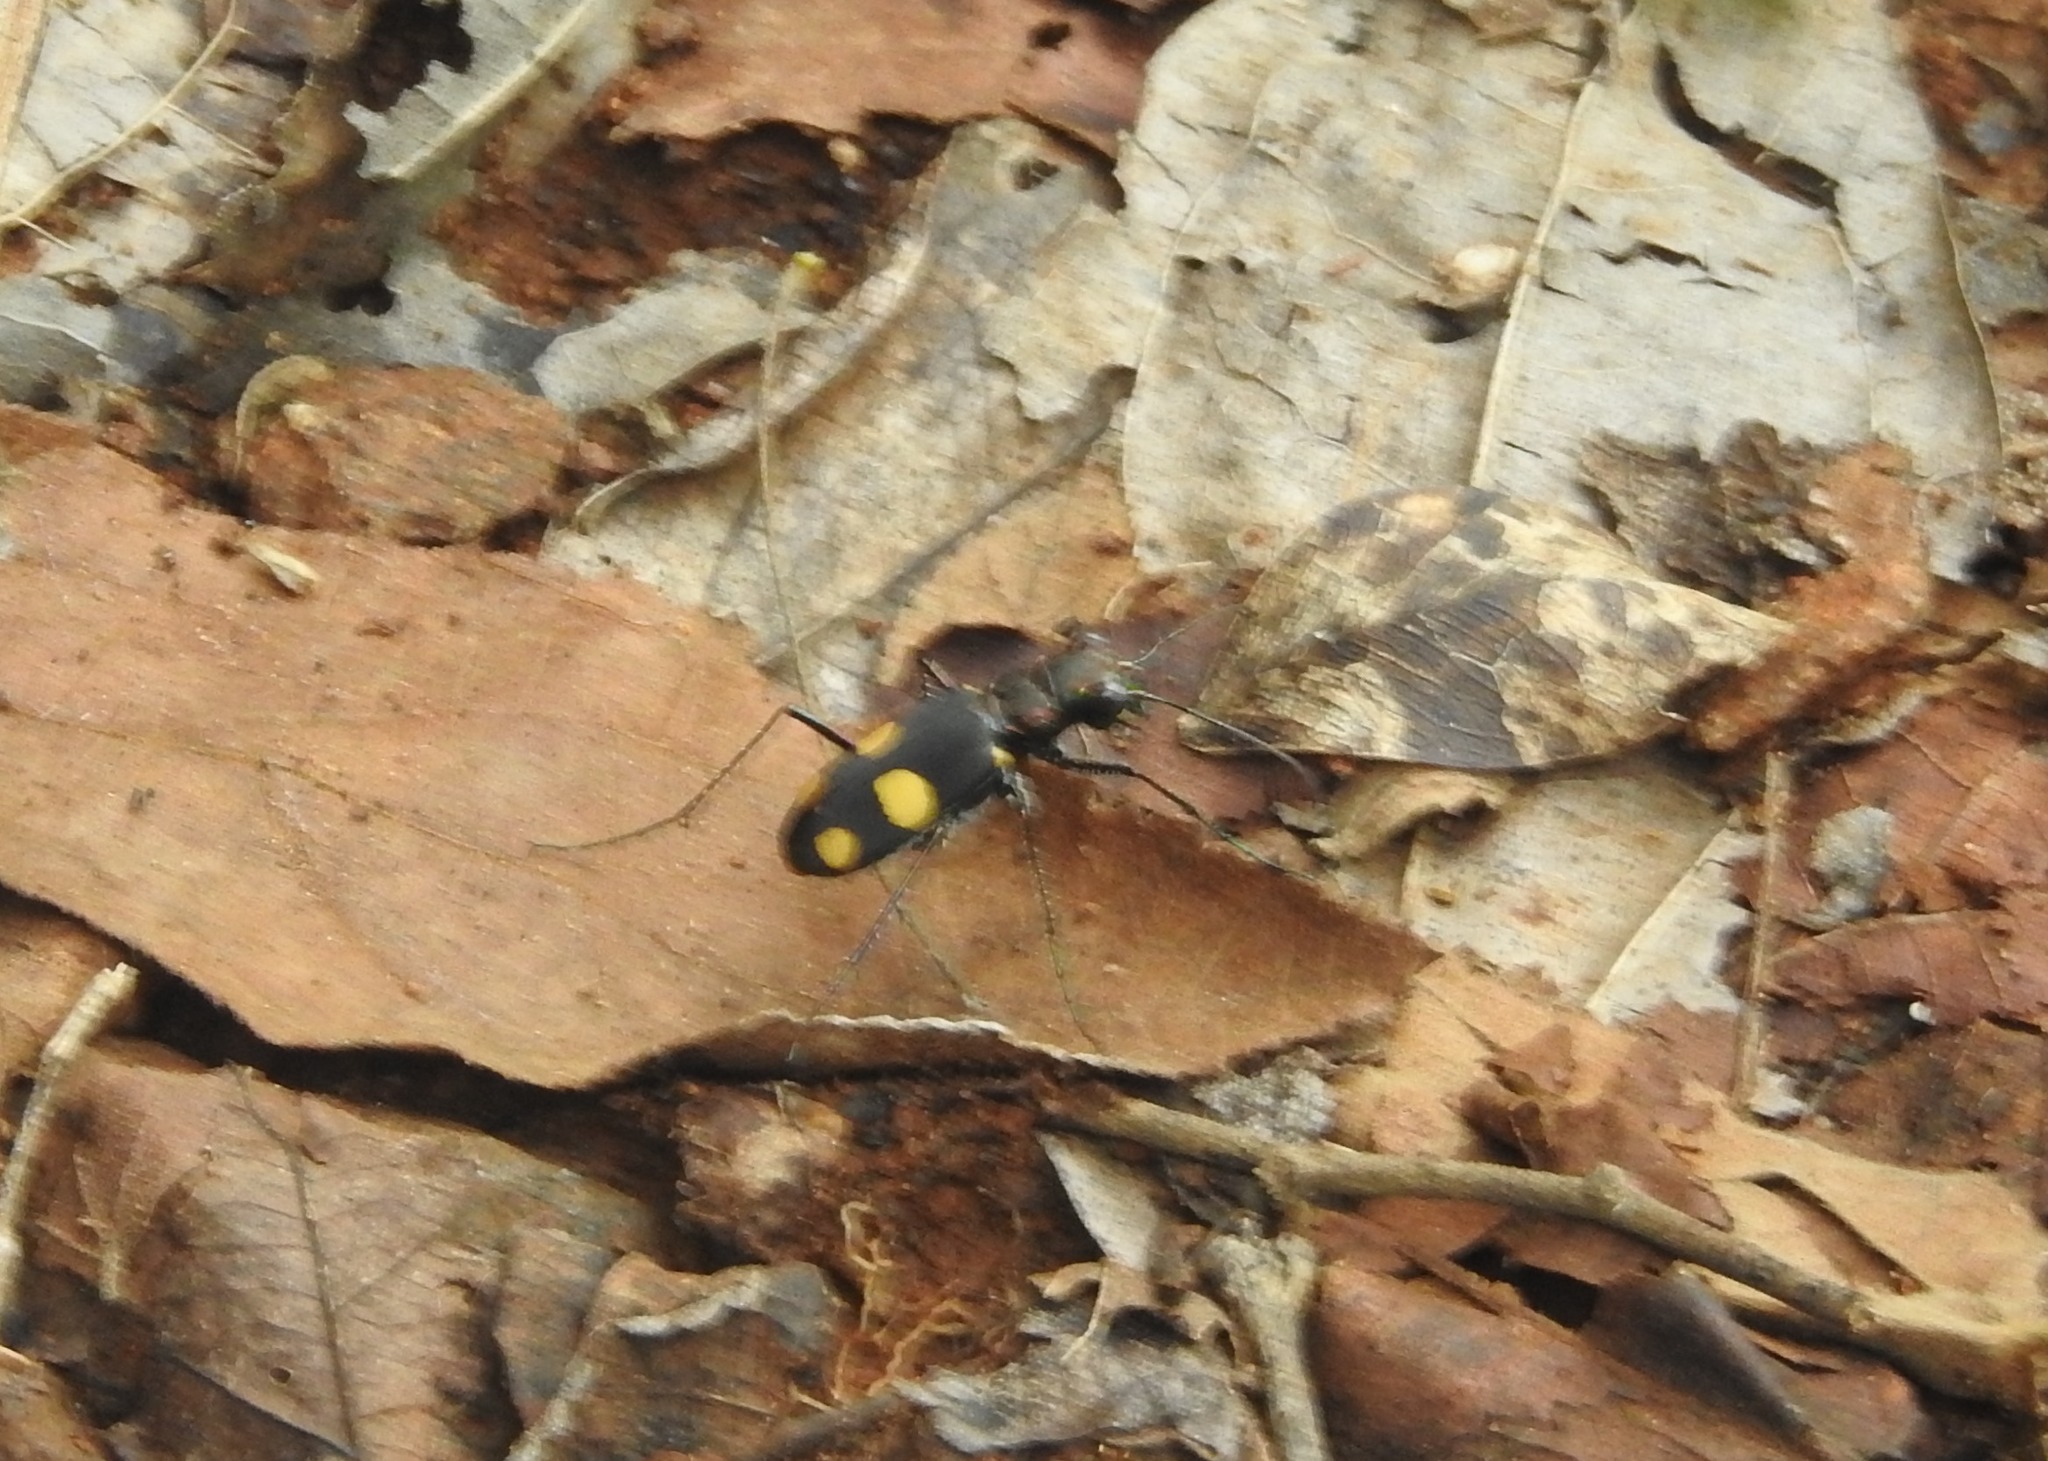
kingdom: Animalia
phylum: Arthropoda
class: Insecta
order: Coleoptera
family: Carabidae
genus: Cicindela
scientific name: Cicindela bicolor
